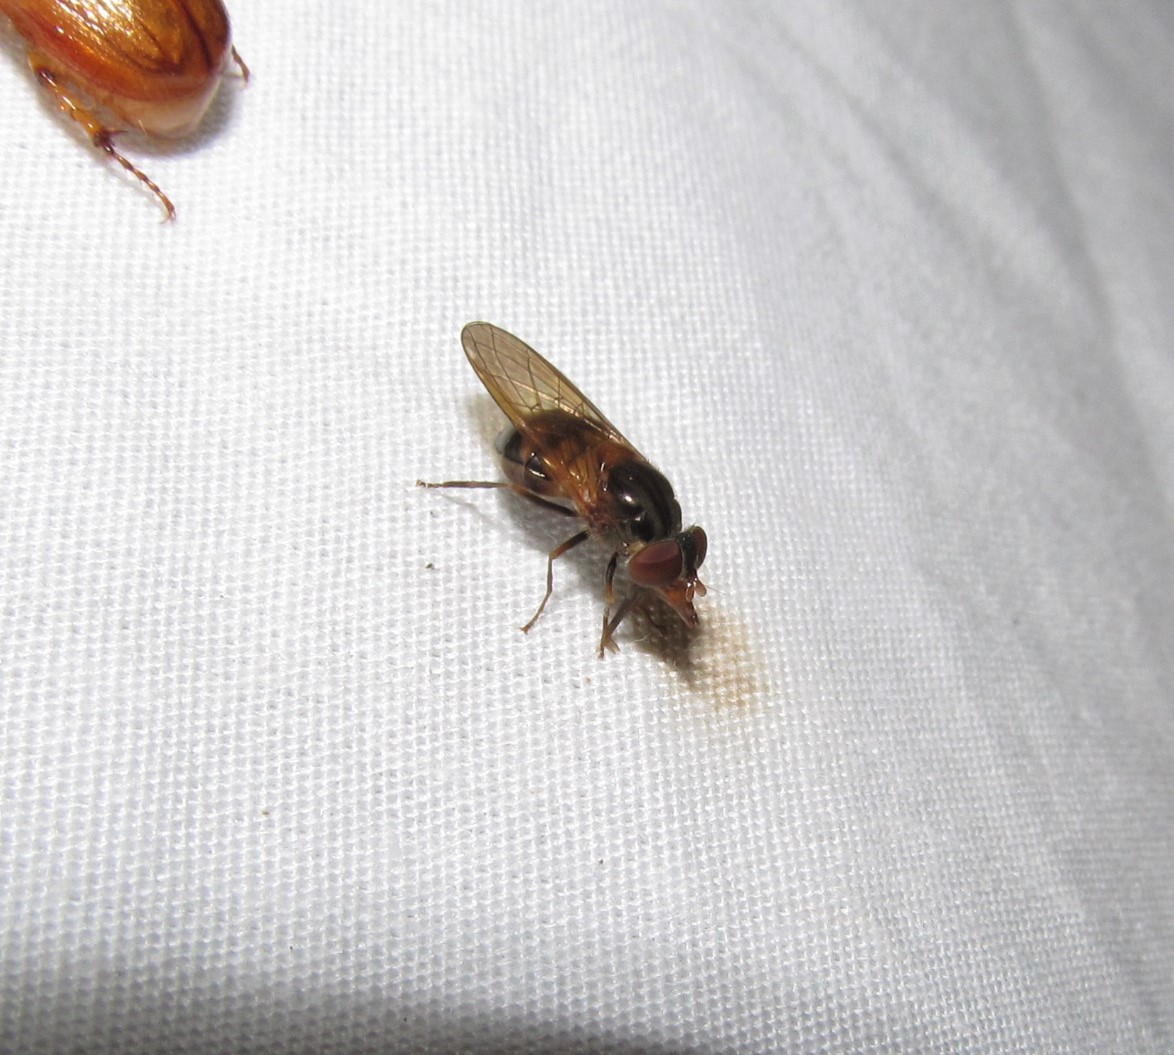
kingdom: Animalia
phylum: Arthropoda
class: Insecta
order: Diptera
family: Syrphidae
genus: Rhingia
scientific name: Rhingia nasica
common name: American snout fly
